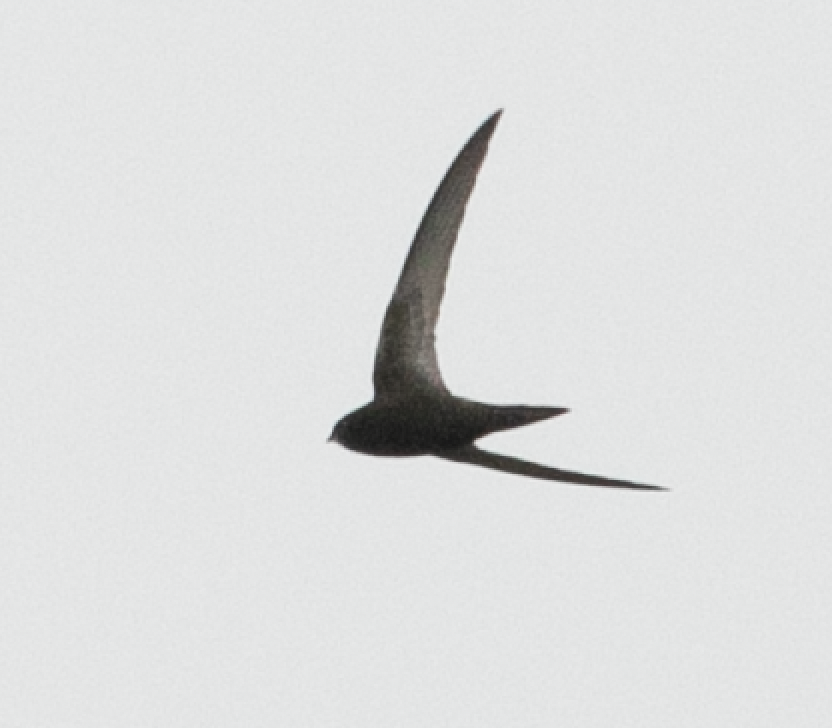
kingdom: Animalia
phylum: Chordata
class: Aves
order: Apodiformes
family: Apodidae
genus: Apus
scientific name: Apus apus
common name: Common swift
